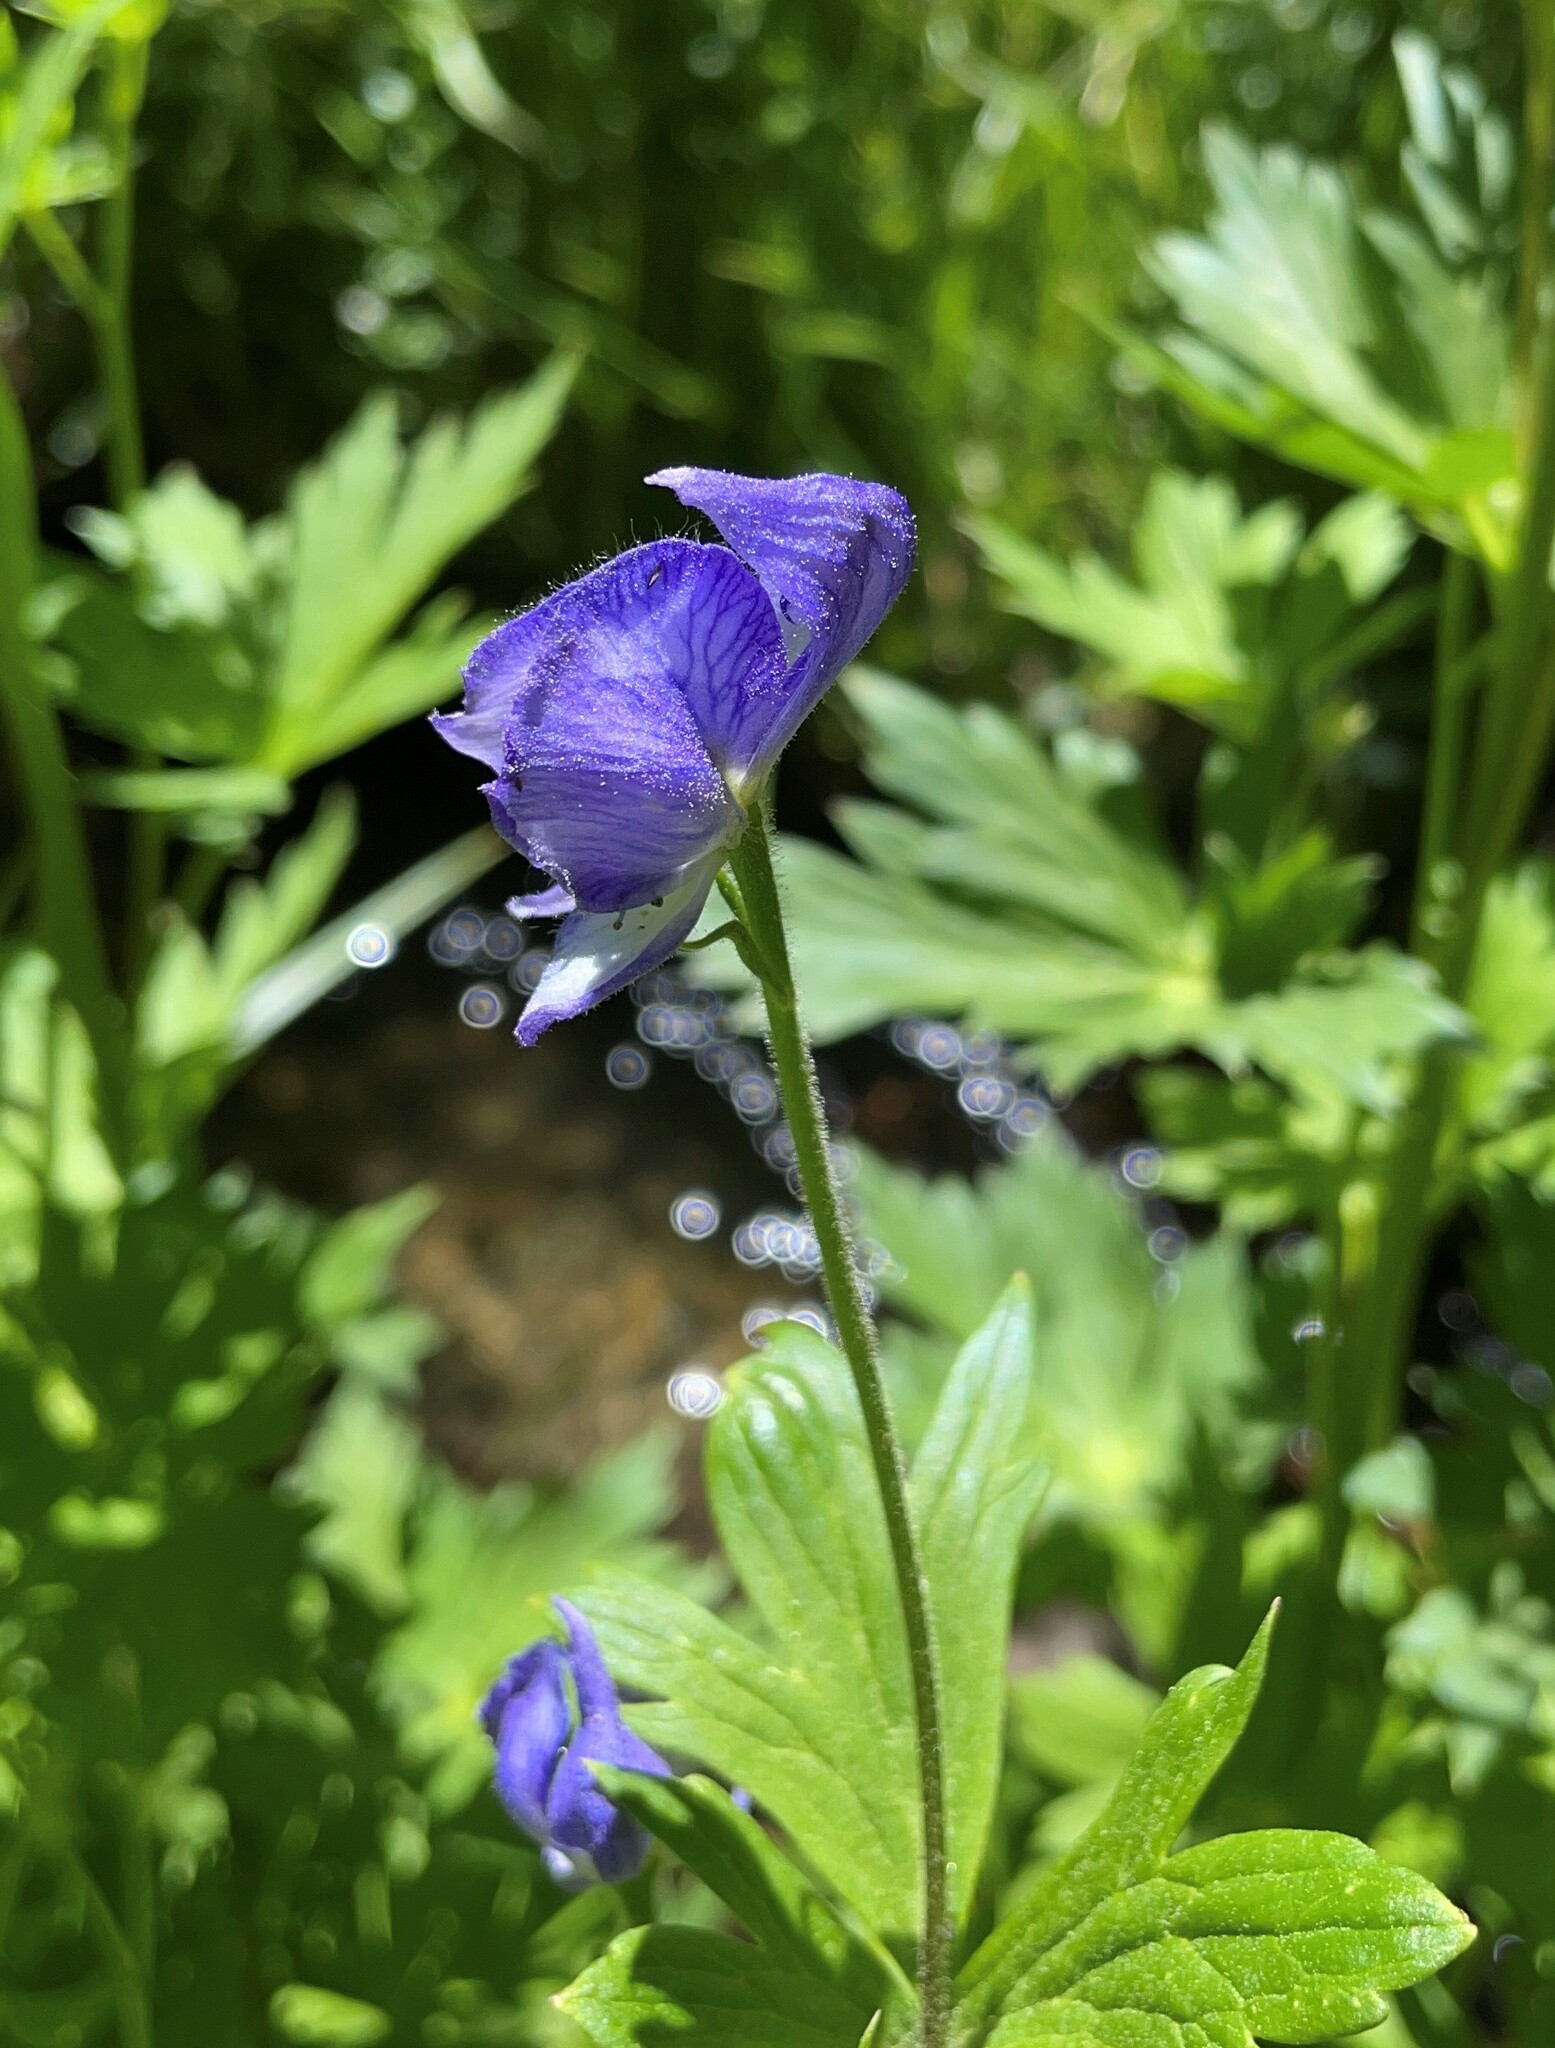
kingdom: Plantae
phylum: Tracheophyta
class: Magnoliopsida
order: Ranunculales
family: Ranunculaceae
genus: Aconitum
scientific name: Aconitum columbianum
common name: Columbia aconite
